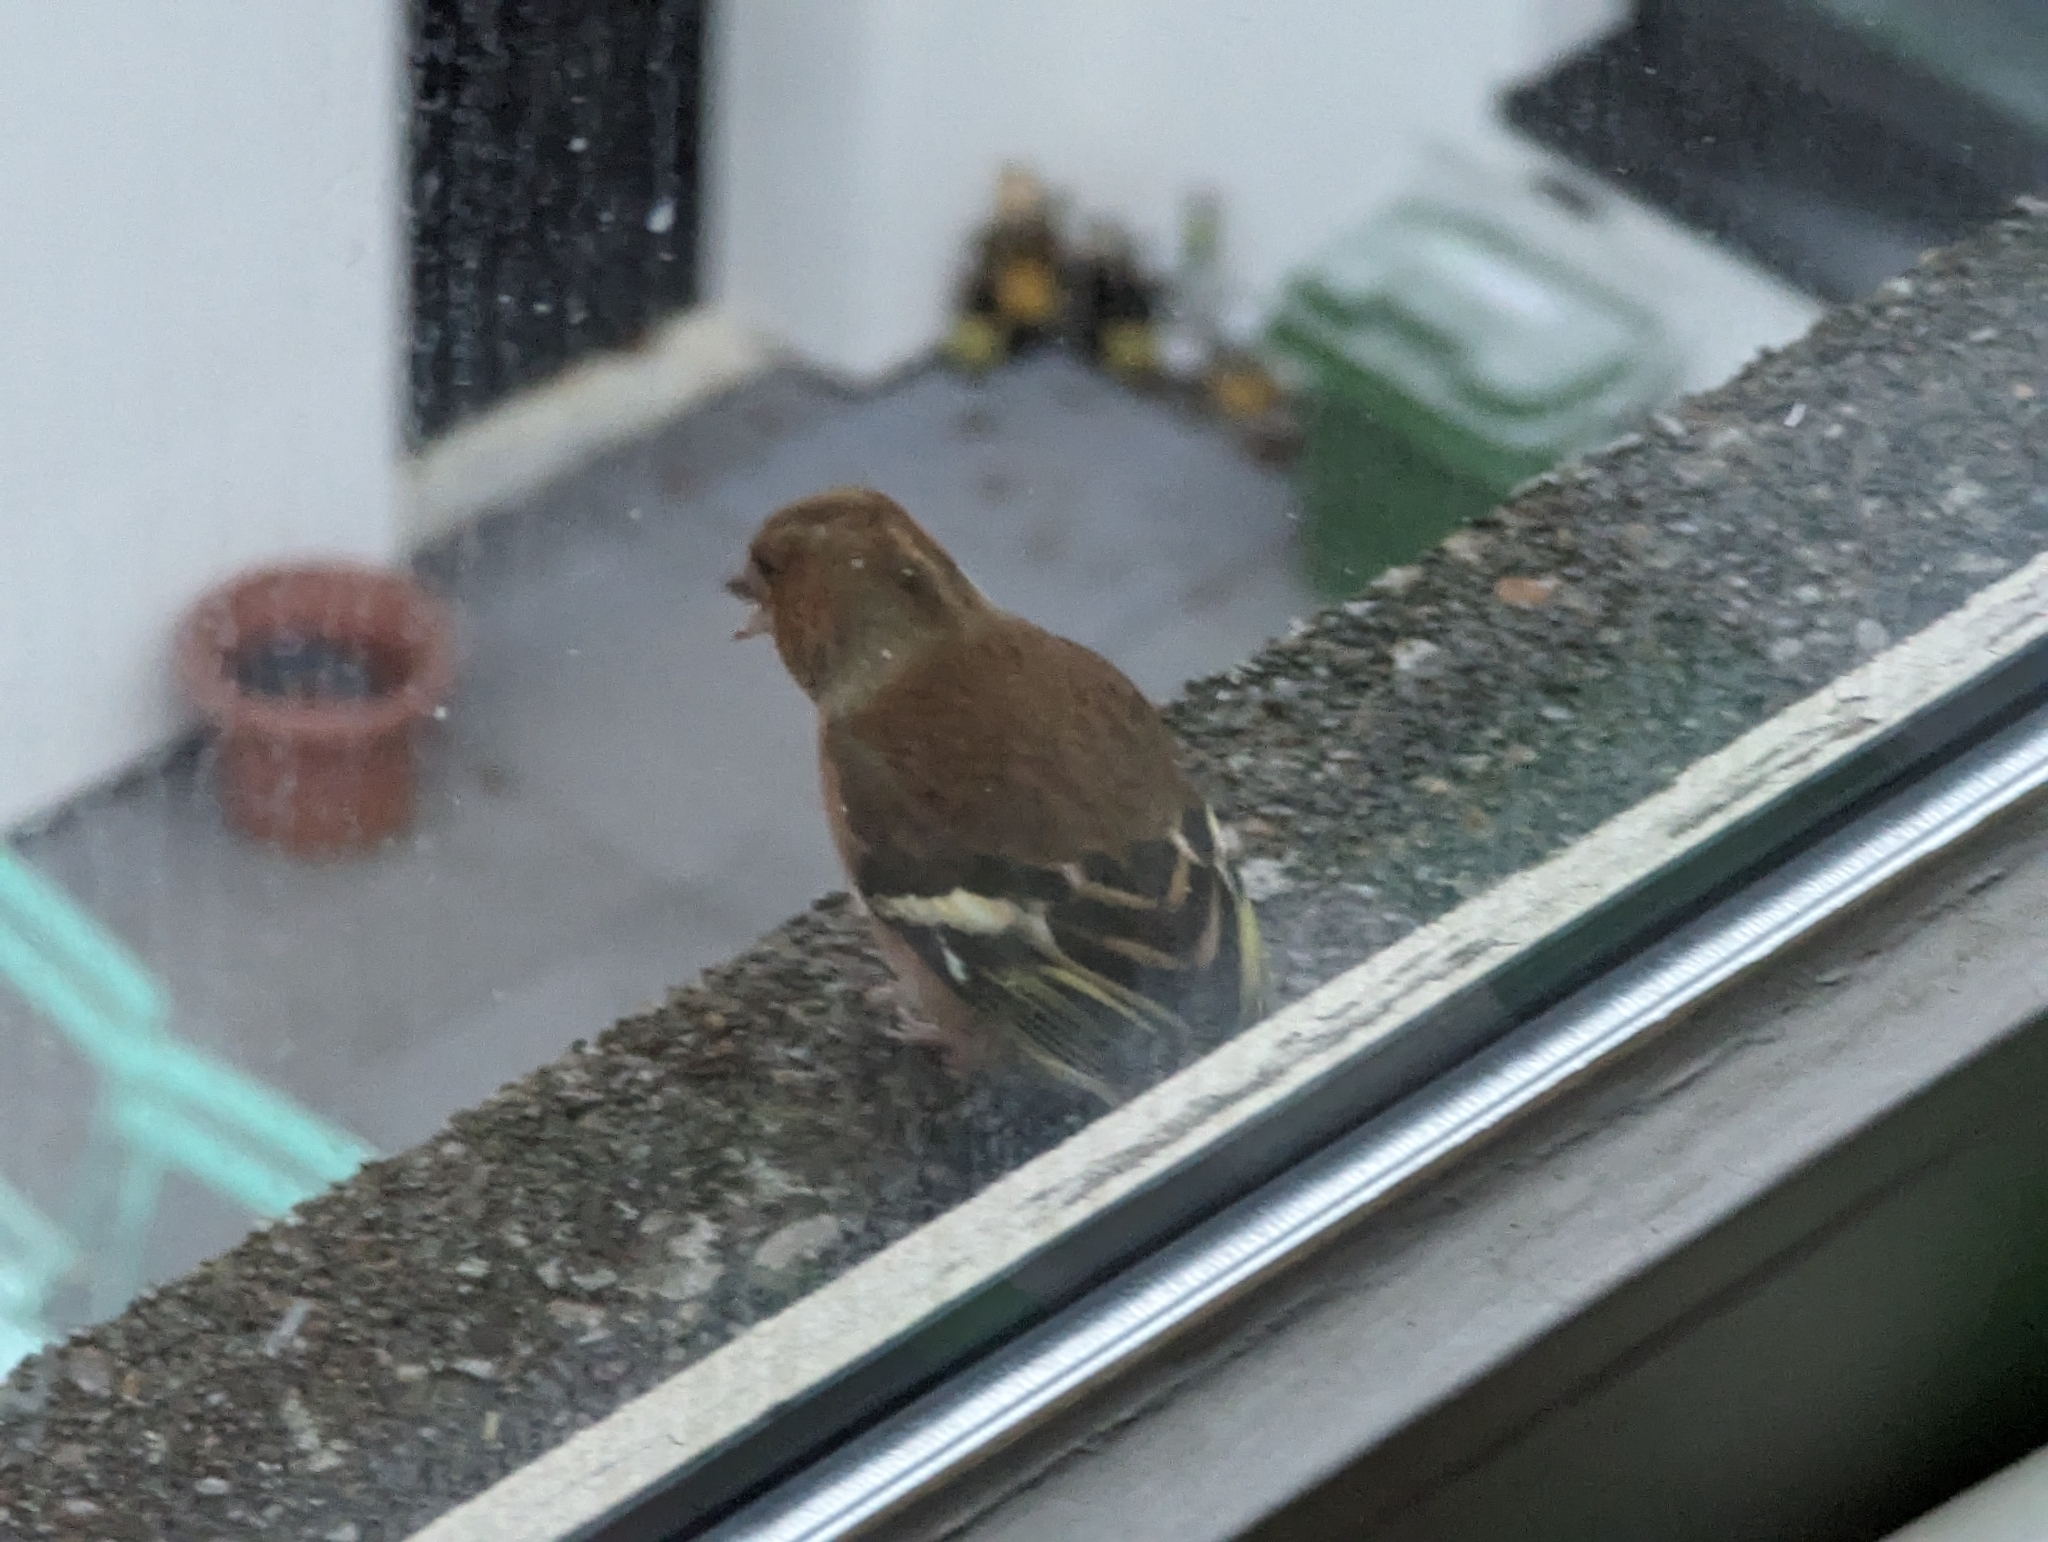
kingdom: Animalia
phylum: Chordata
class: Aves
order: Passeriformes
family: Fringillidae
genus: Fringilla
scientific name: Fringilla coelebs
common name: Common chaffinch
